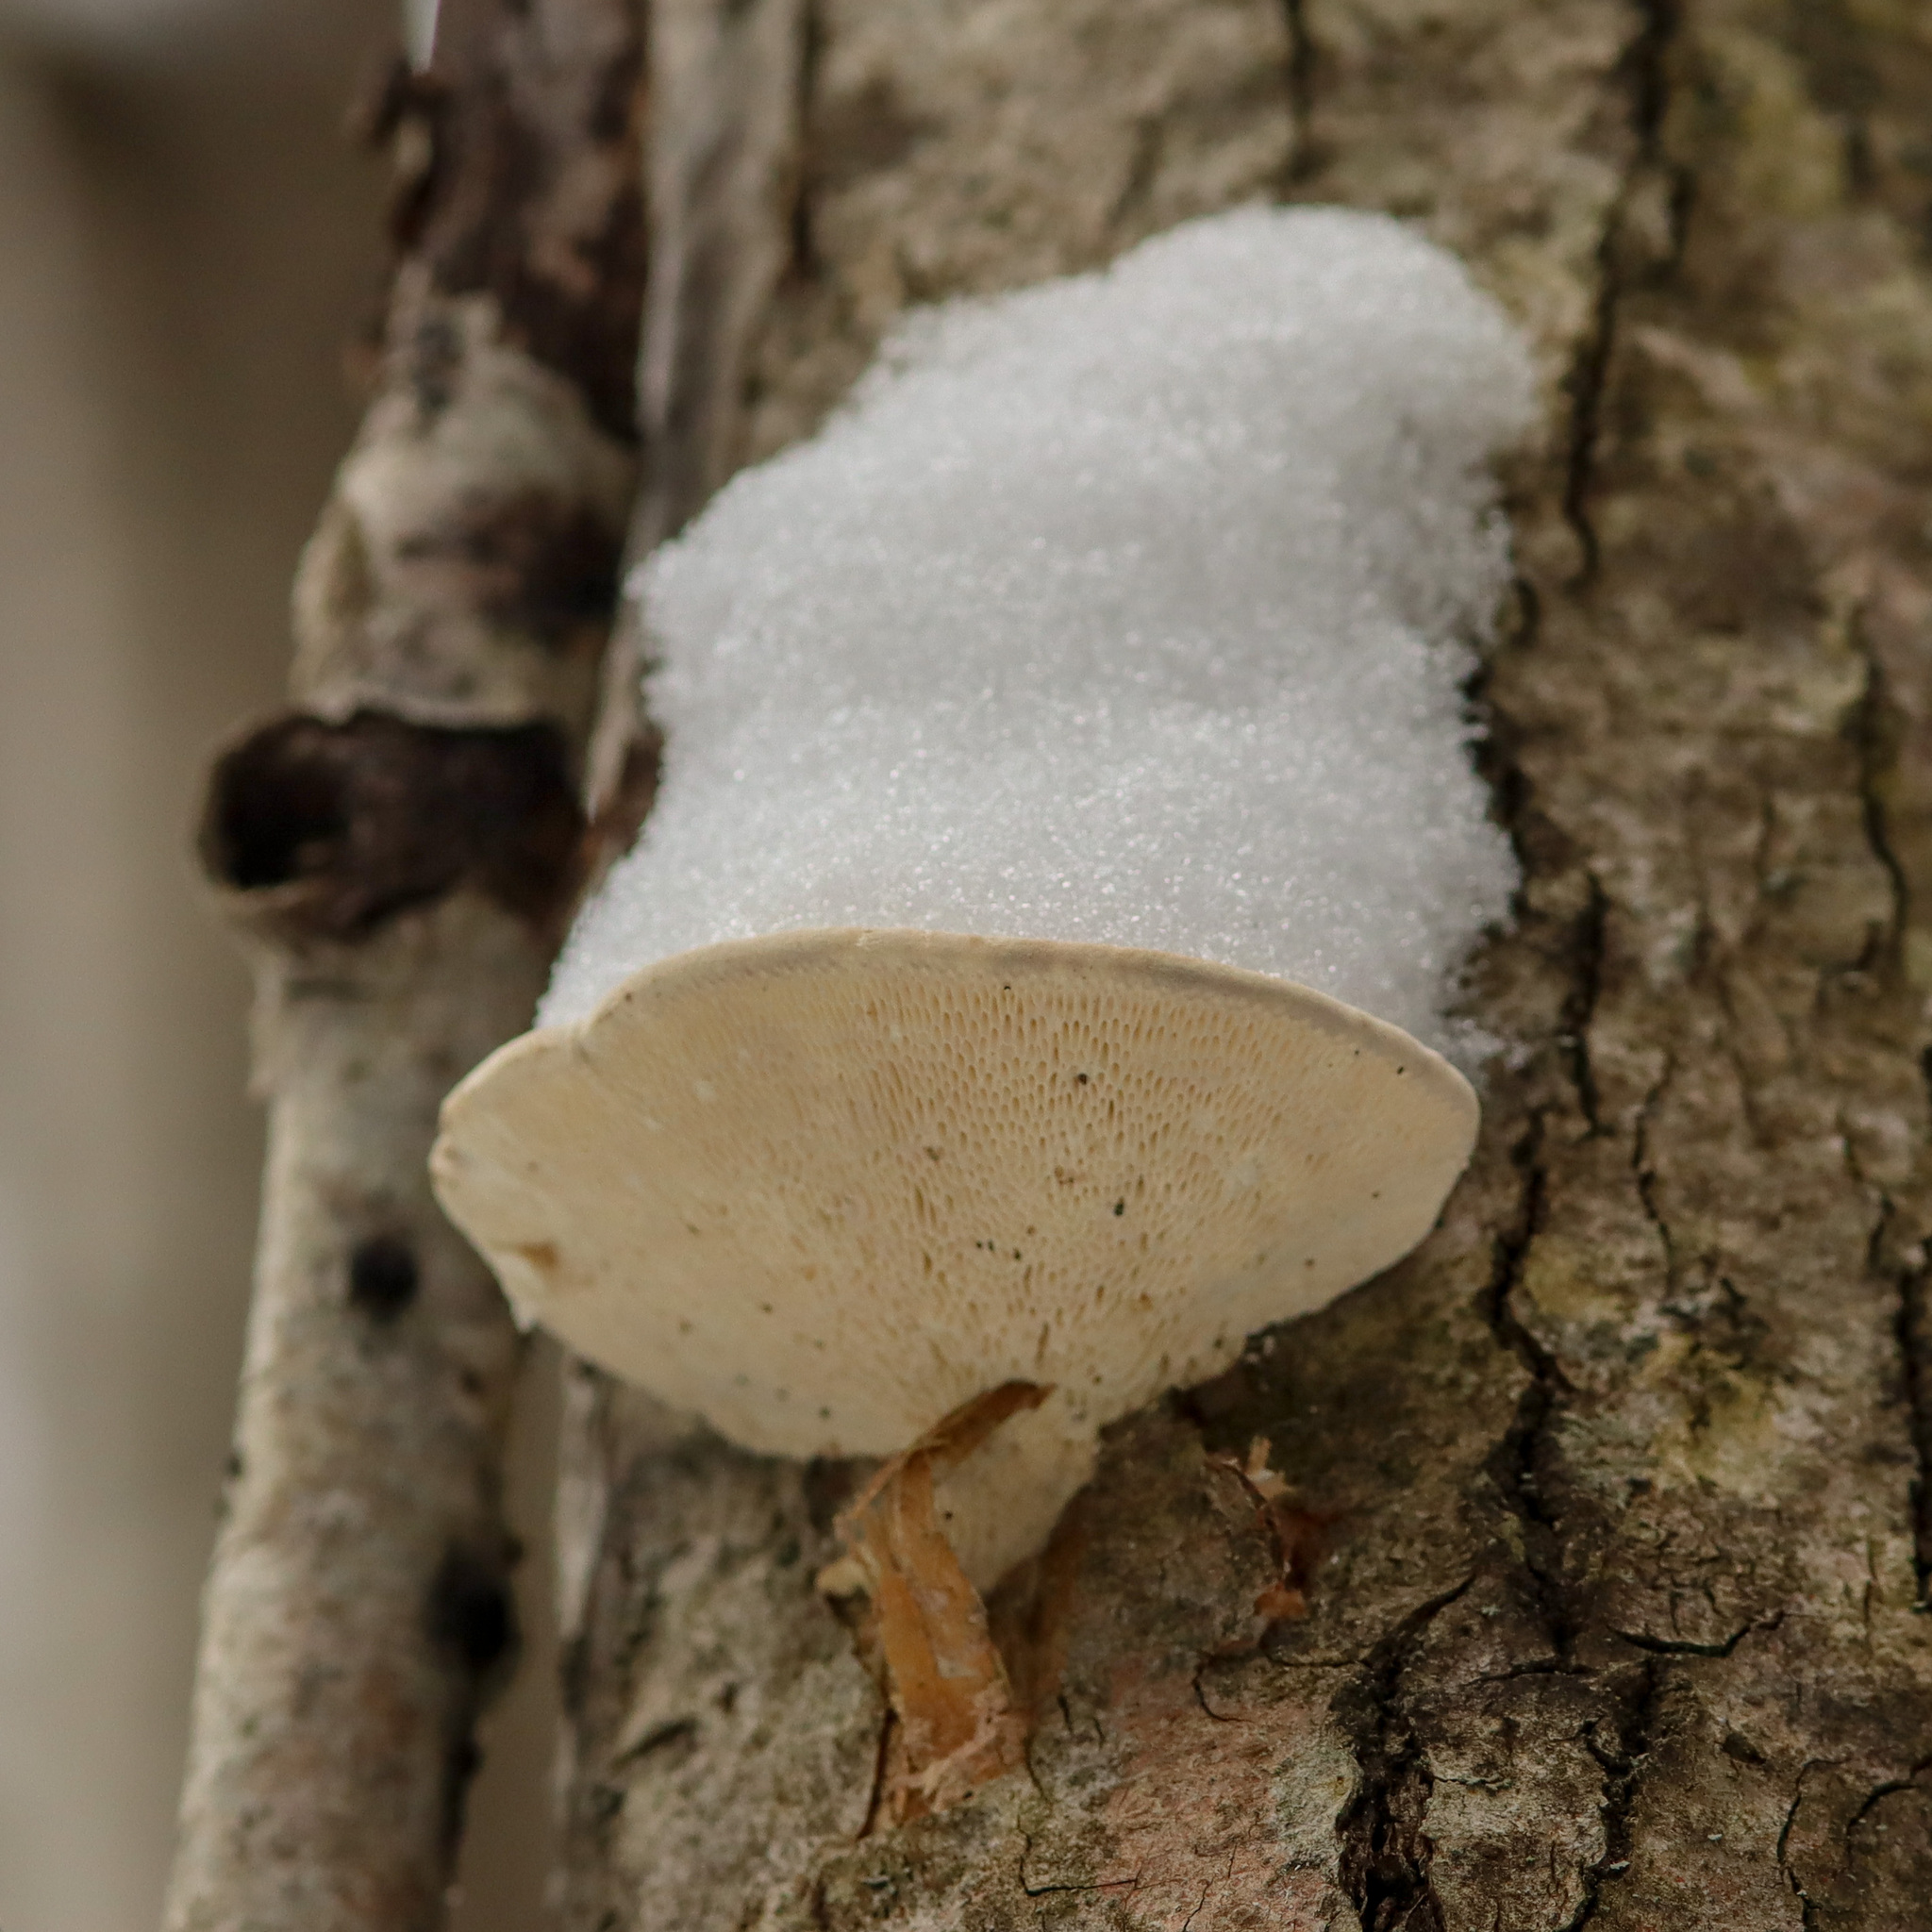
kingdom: Fungi
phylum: Basidiomycota
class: Agaricomycetes
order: Polyporales
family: Polyporaceae
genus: Trametes
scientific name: Trametes gibbosa
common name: Lumpy bracket
